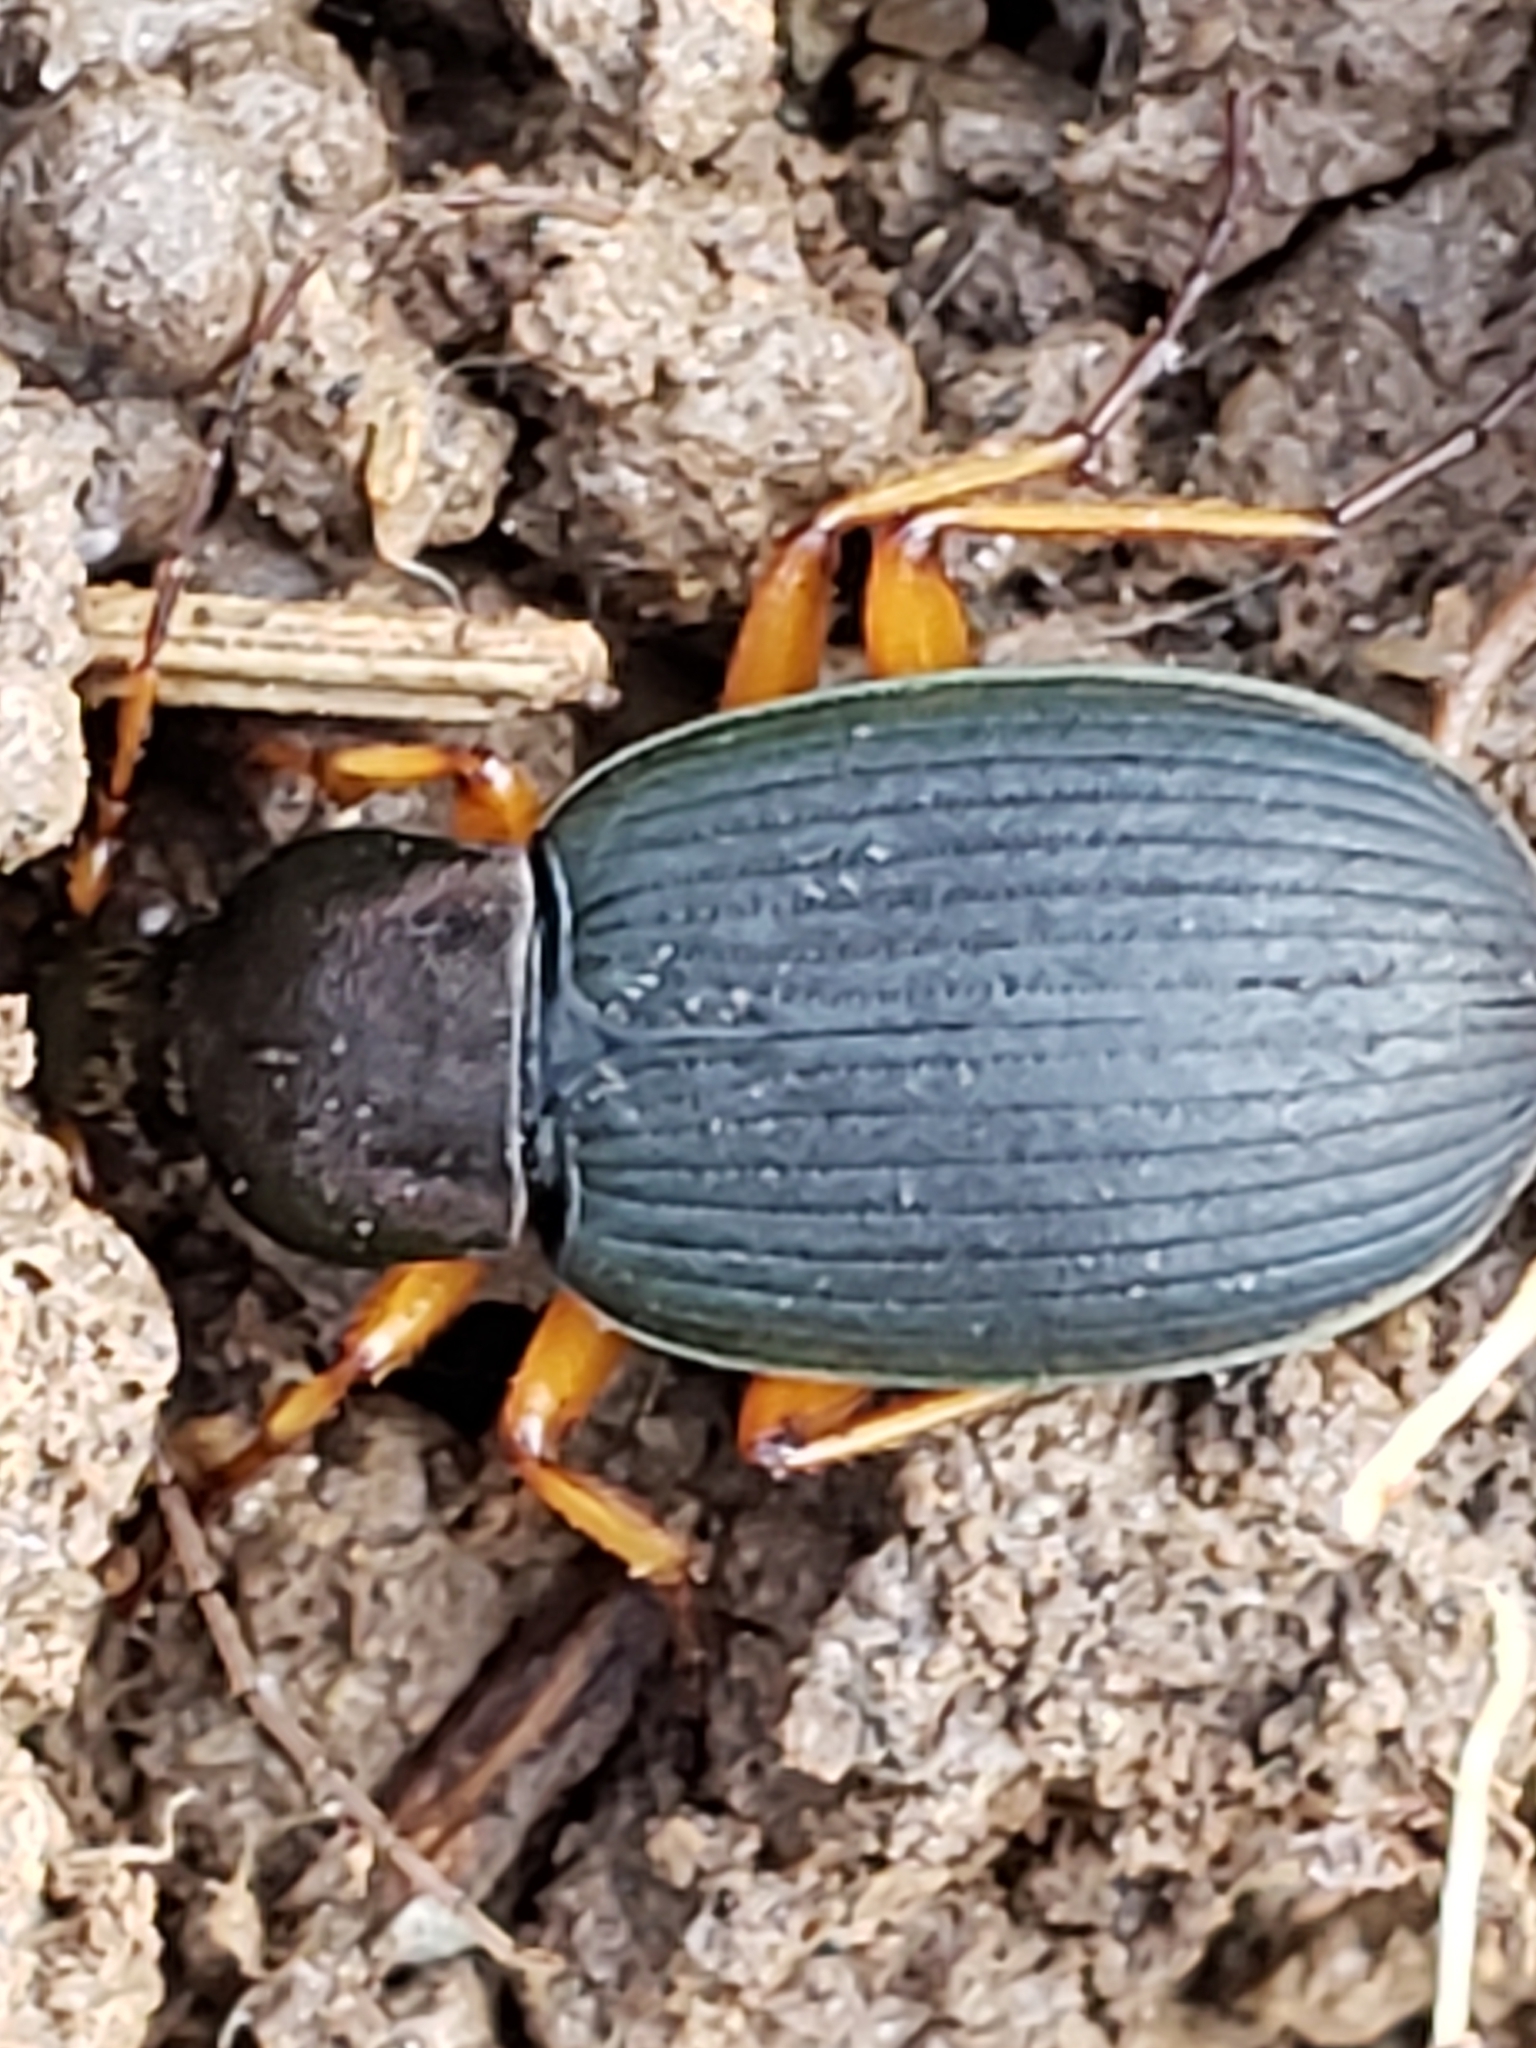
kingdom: Animalia
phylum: Arthropoda
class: Insecta
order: Coleoptera
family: Carabidae
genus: Chlaenius
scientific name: Chlaenius aestivus
